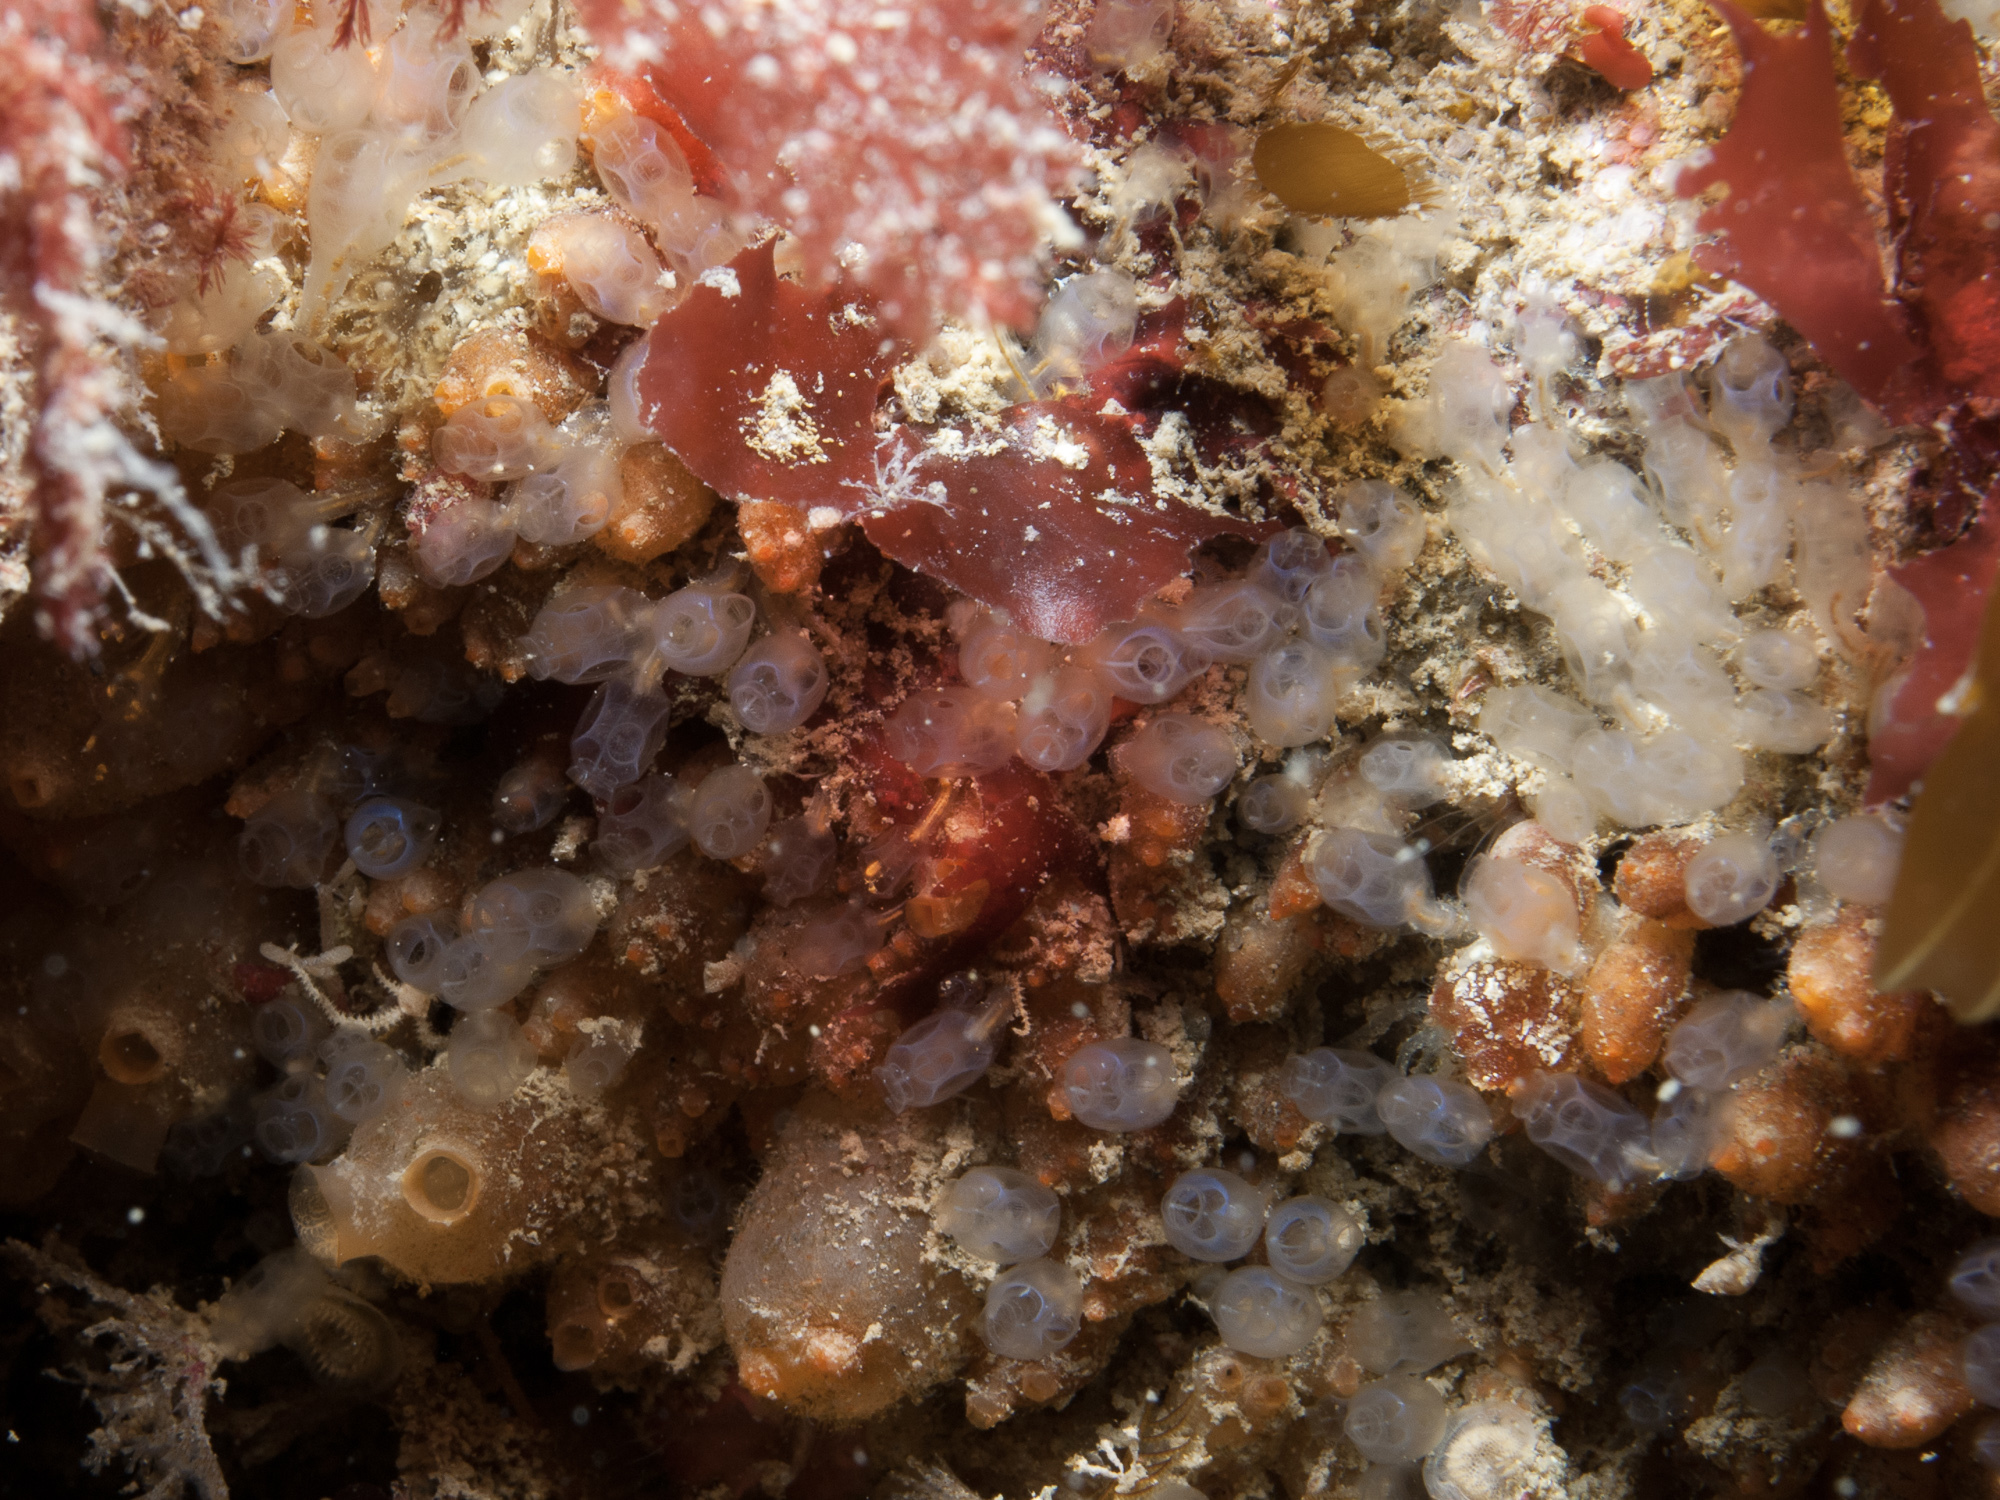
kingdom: Animalia
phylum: Chordata
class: Ascidiacea
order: Aplousobranchia
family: Clavelinidae
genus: Pycnoclavella
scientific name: Pycnoclavella producta
